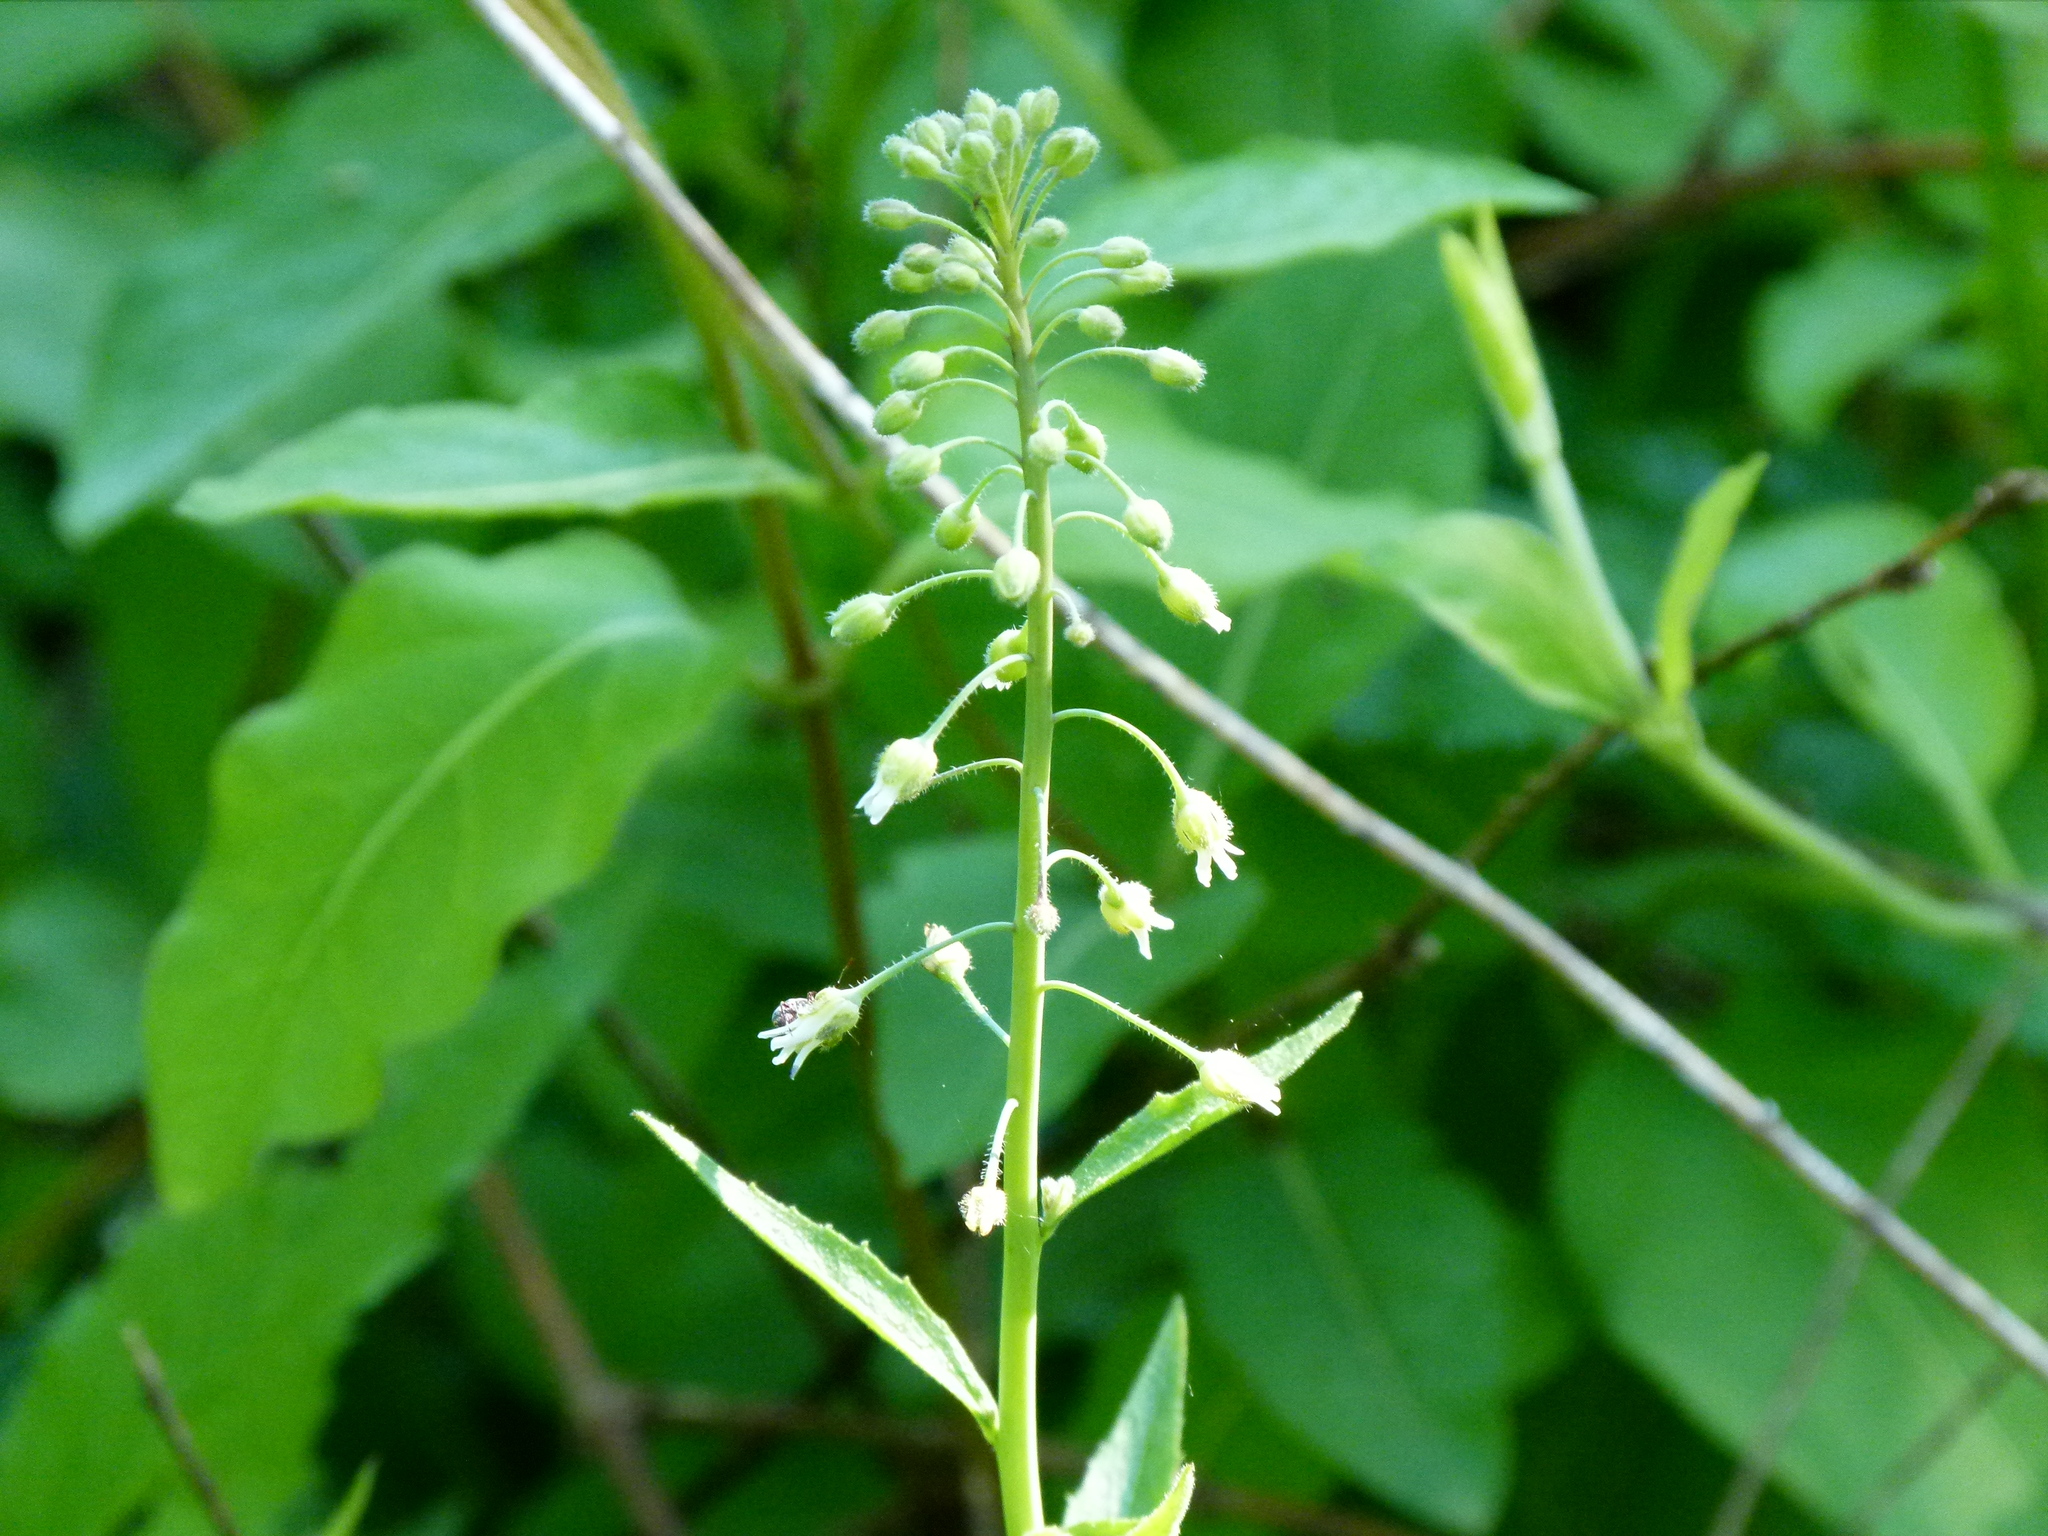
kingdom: Plantae
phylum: Tracheophyta
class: Magnoliopsida
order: Brassicales
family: Brassicaceae
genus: Borodinia
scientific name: Borodinia canadensis
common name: Sicklepod
